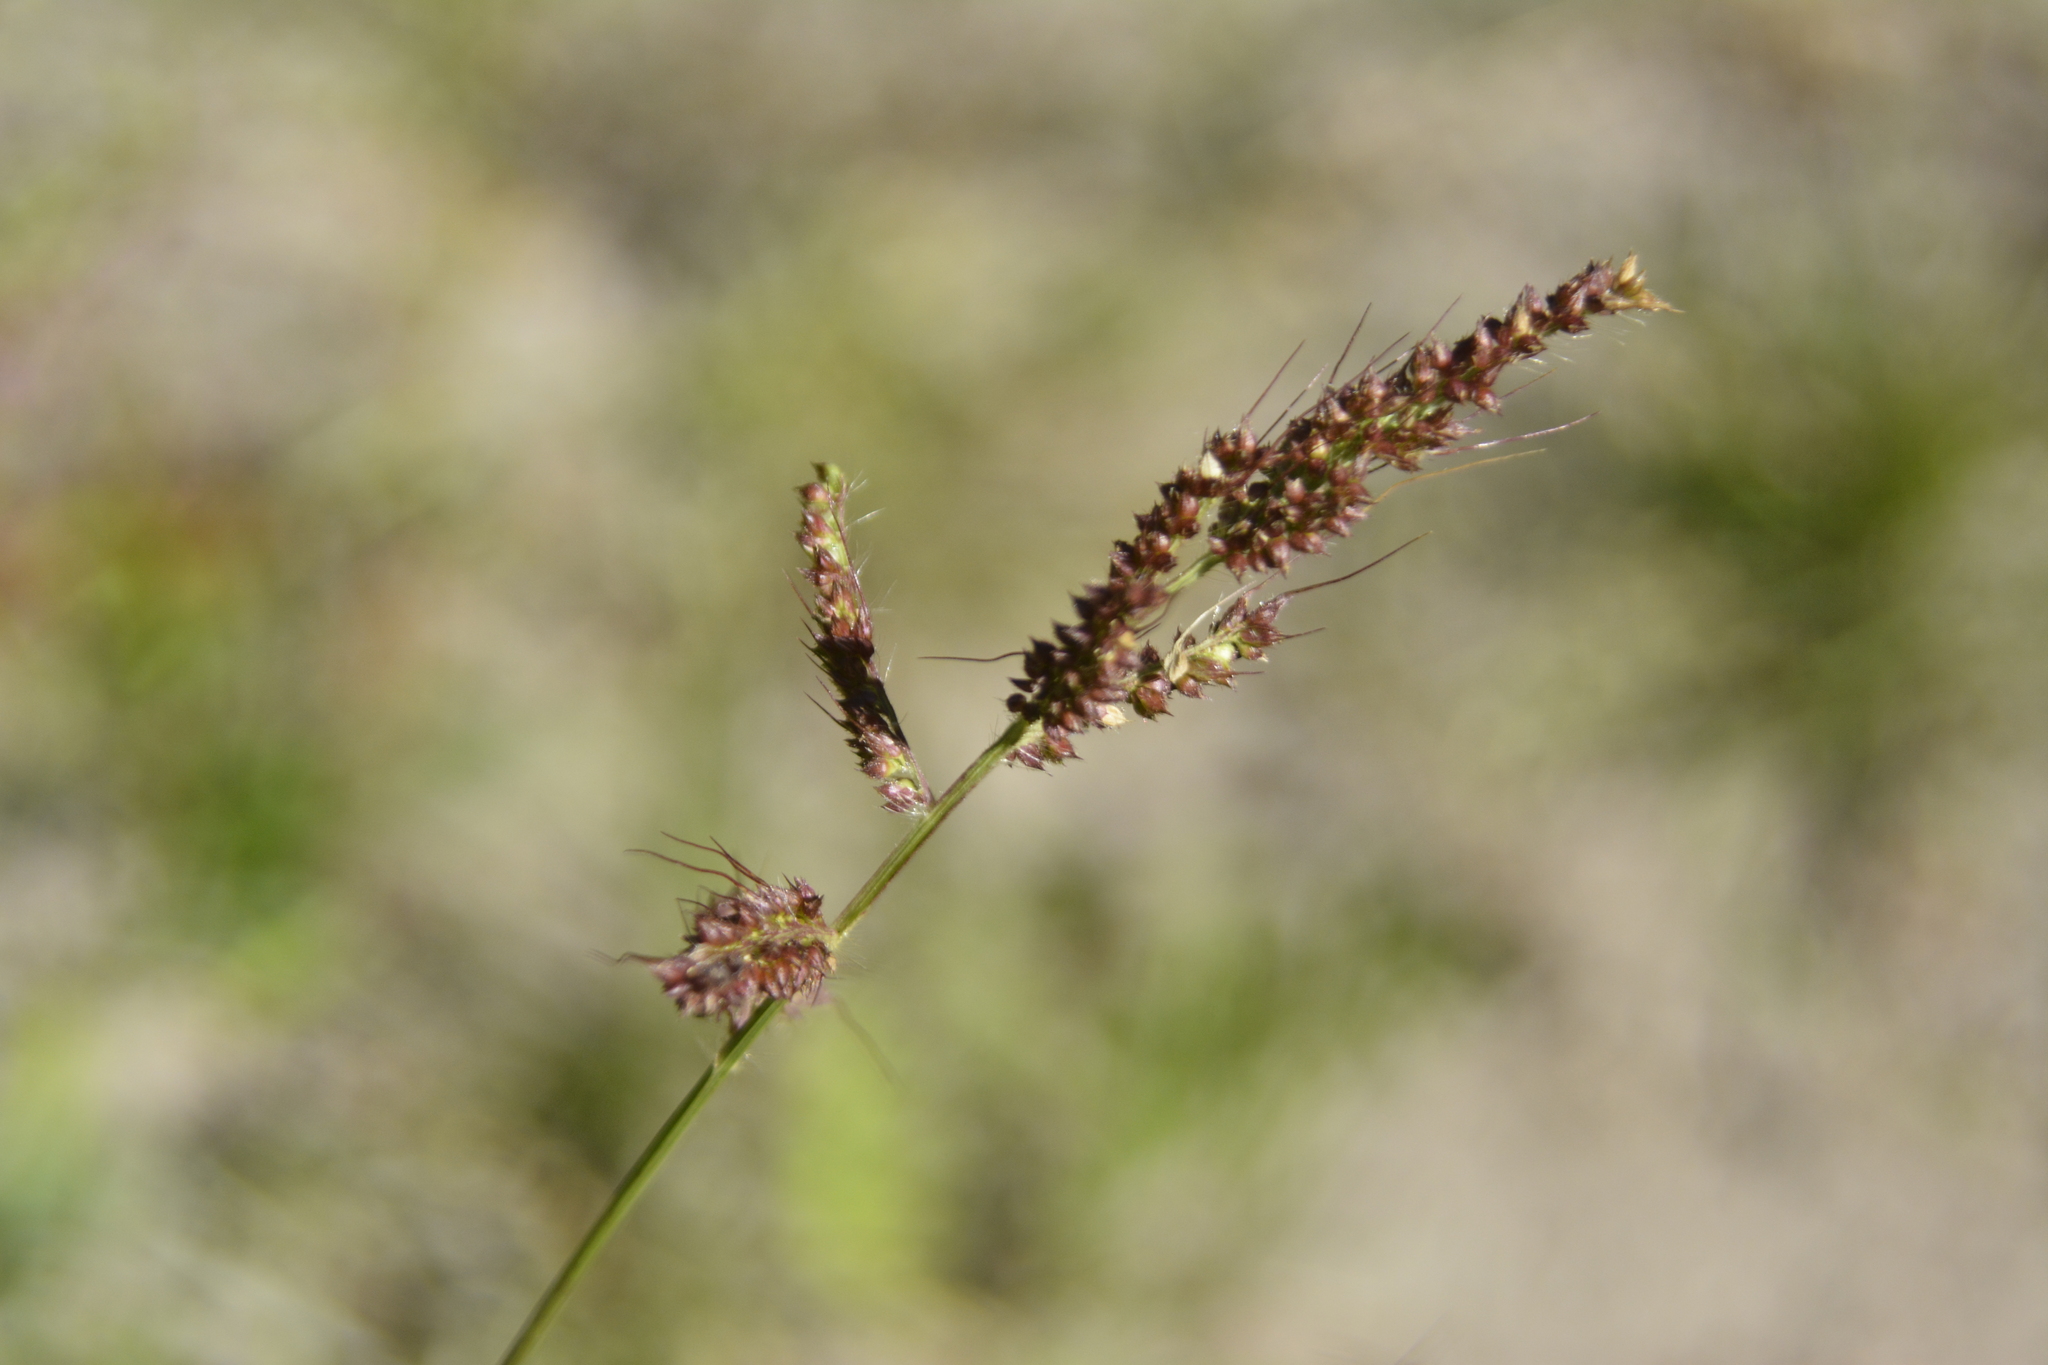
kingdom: Plantae
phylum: Tracheophyta
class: Liliopsida
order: Poales
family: Poaceae
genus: Echinochloa
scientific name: Echinochloa crus-galli
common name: Cockspur
